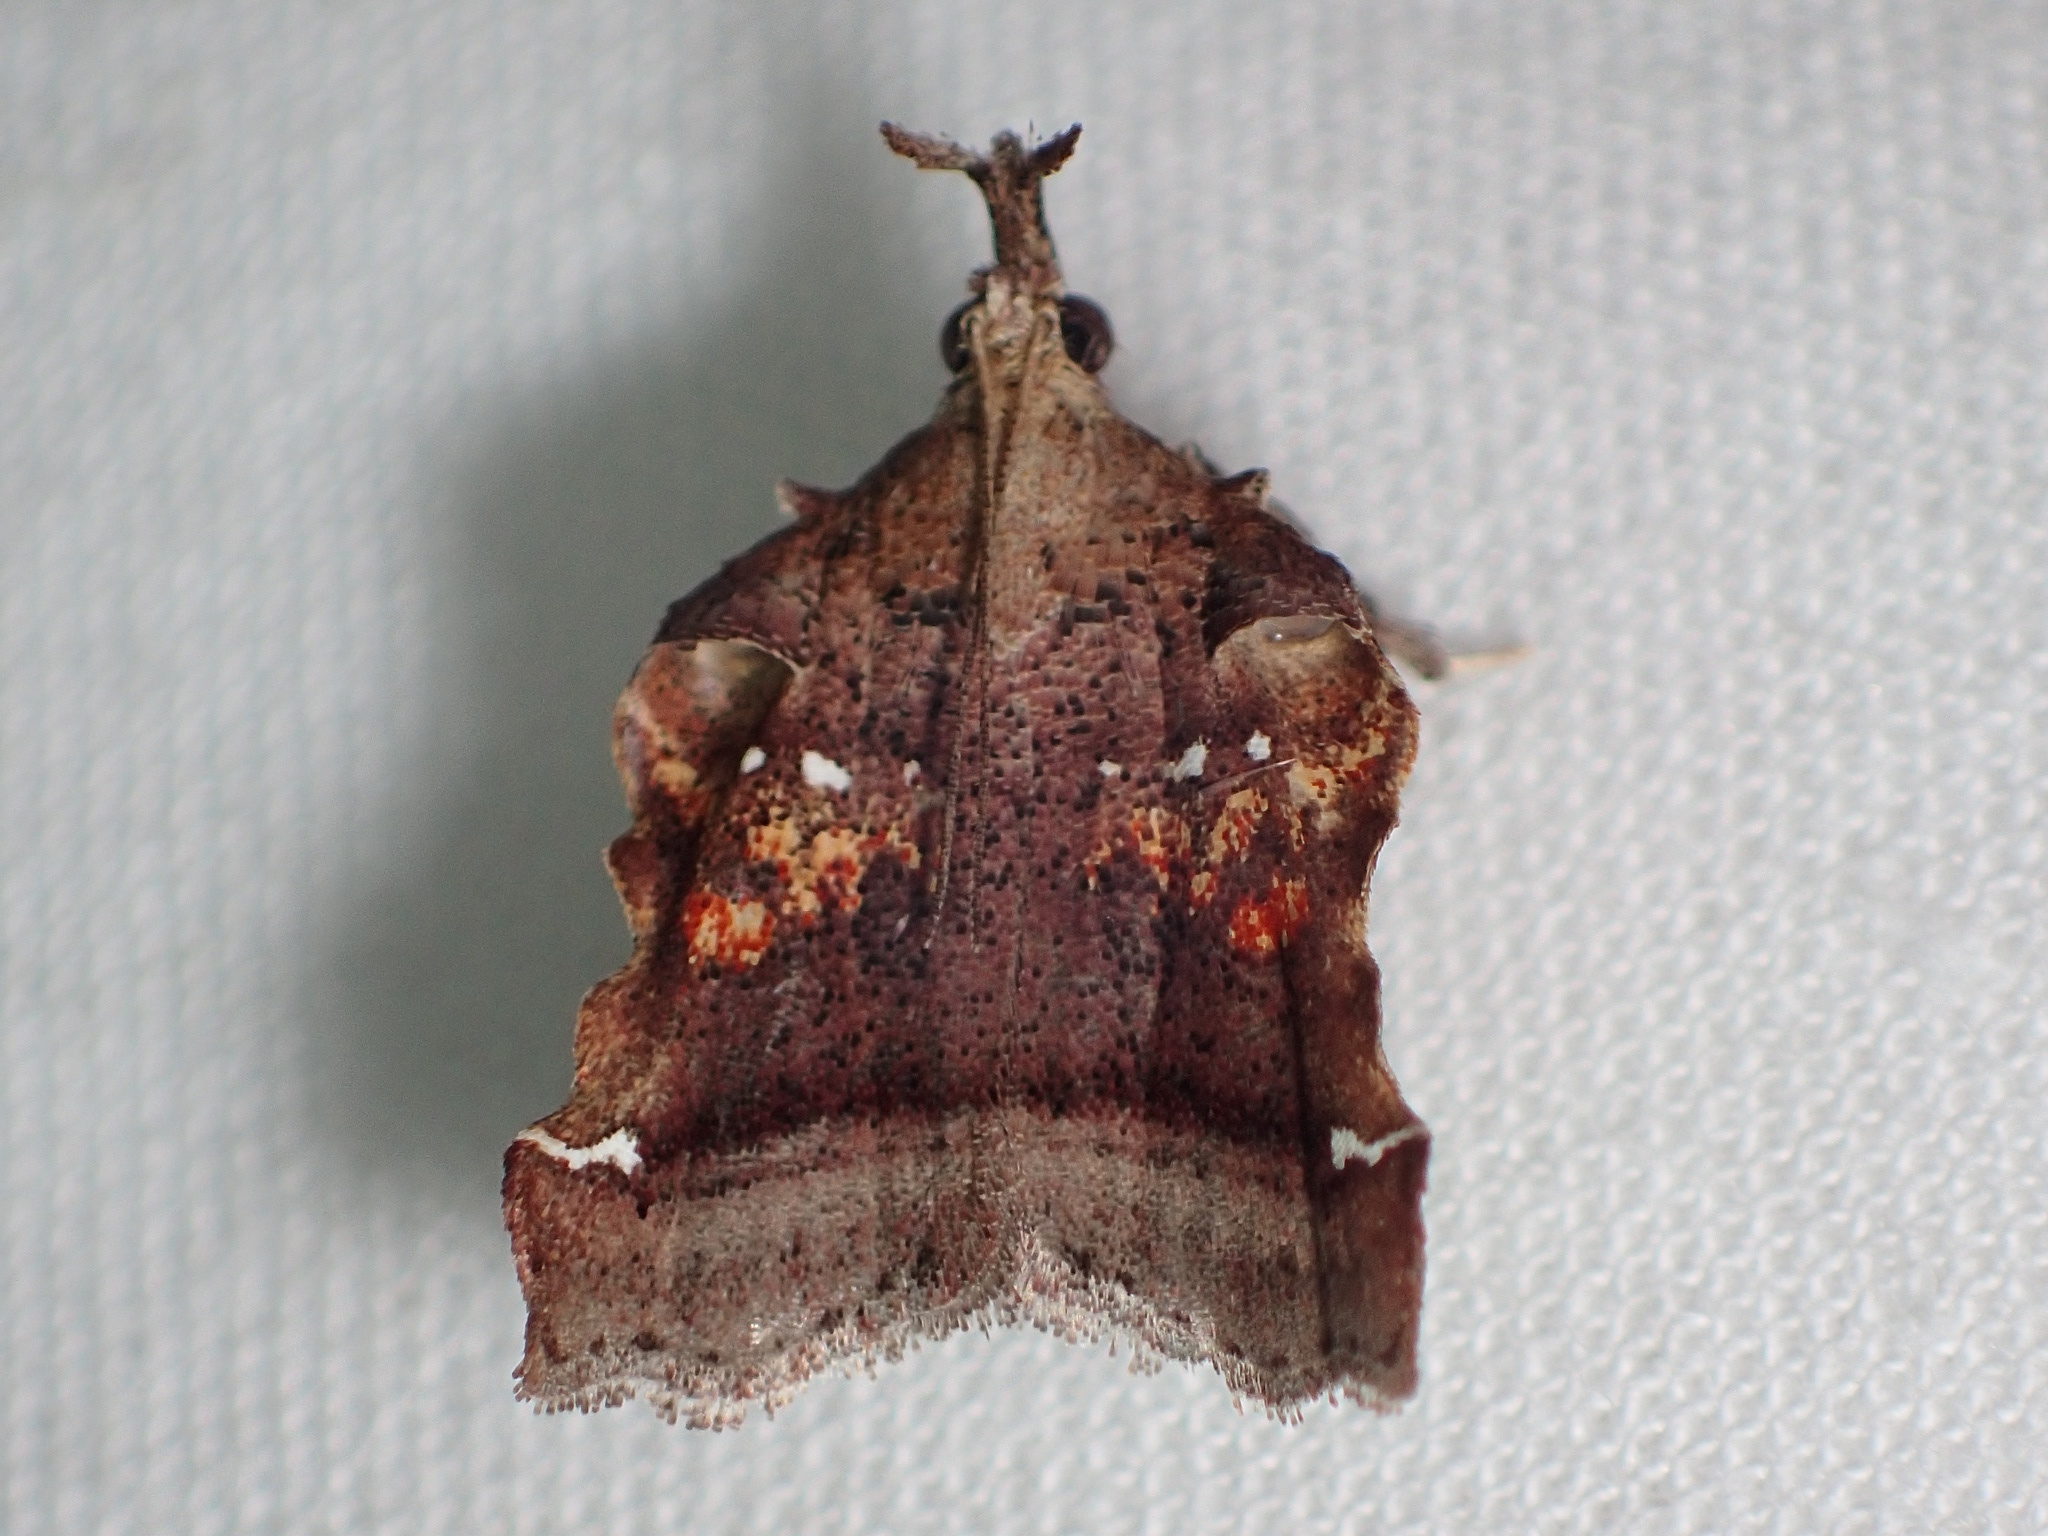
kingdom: Animalia
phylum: Arthropoda
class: Insecta
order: Lepidoptera
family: Pyralidae
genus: Clydonopteron
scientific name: Clydonopteron sacculana
